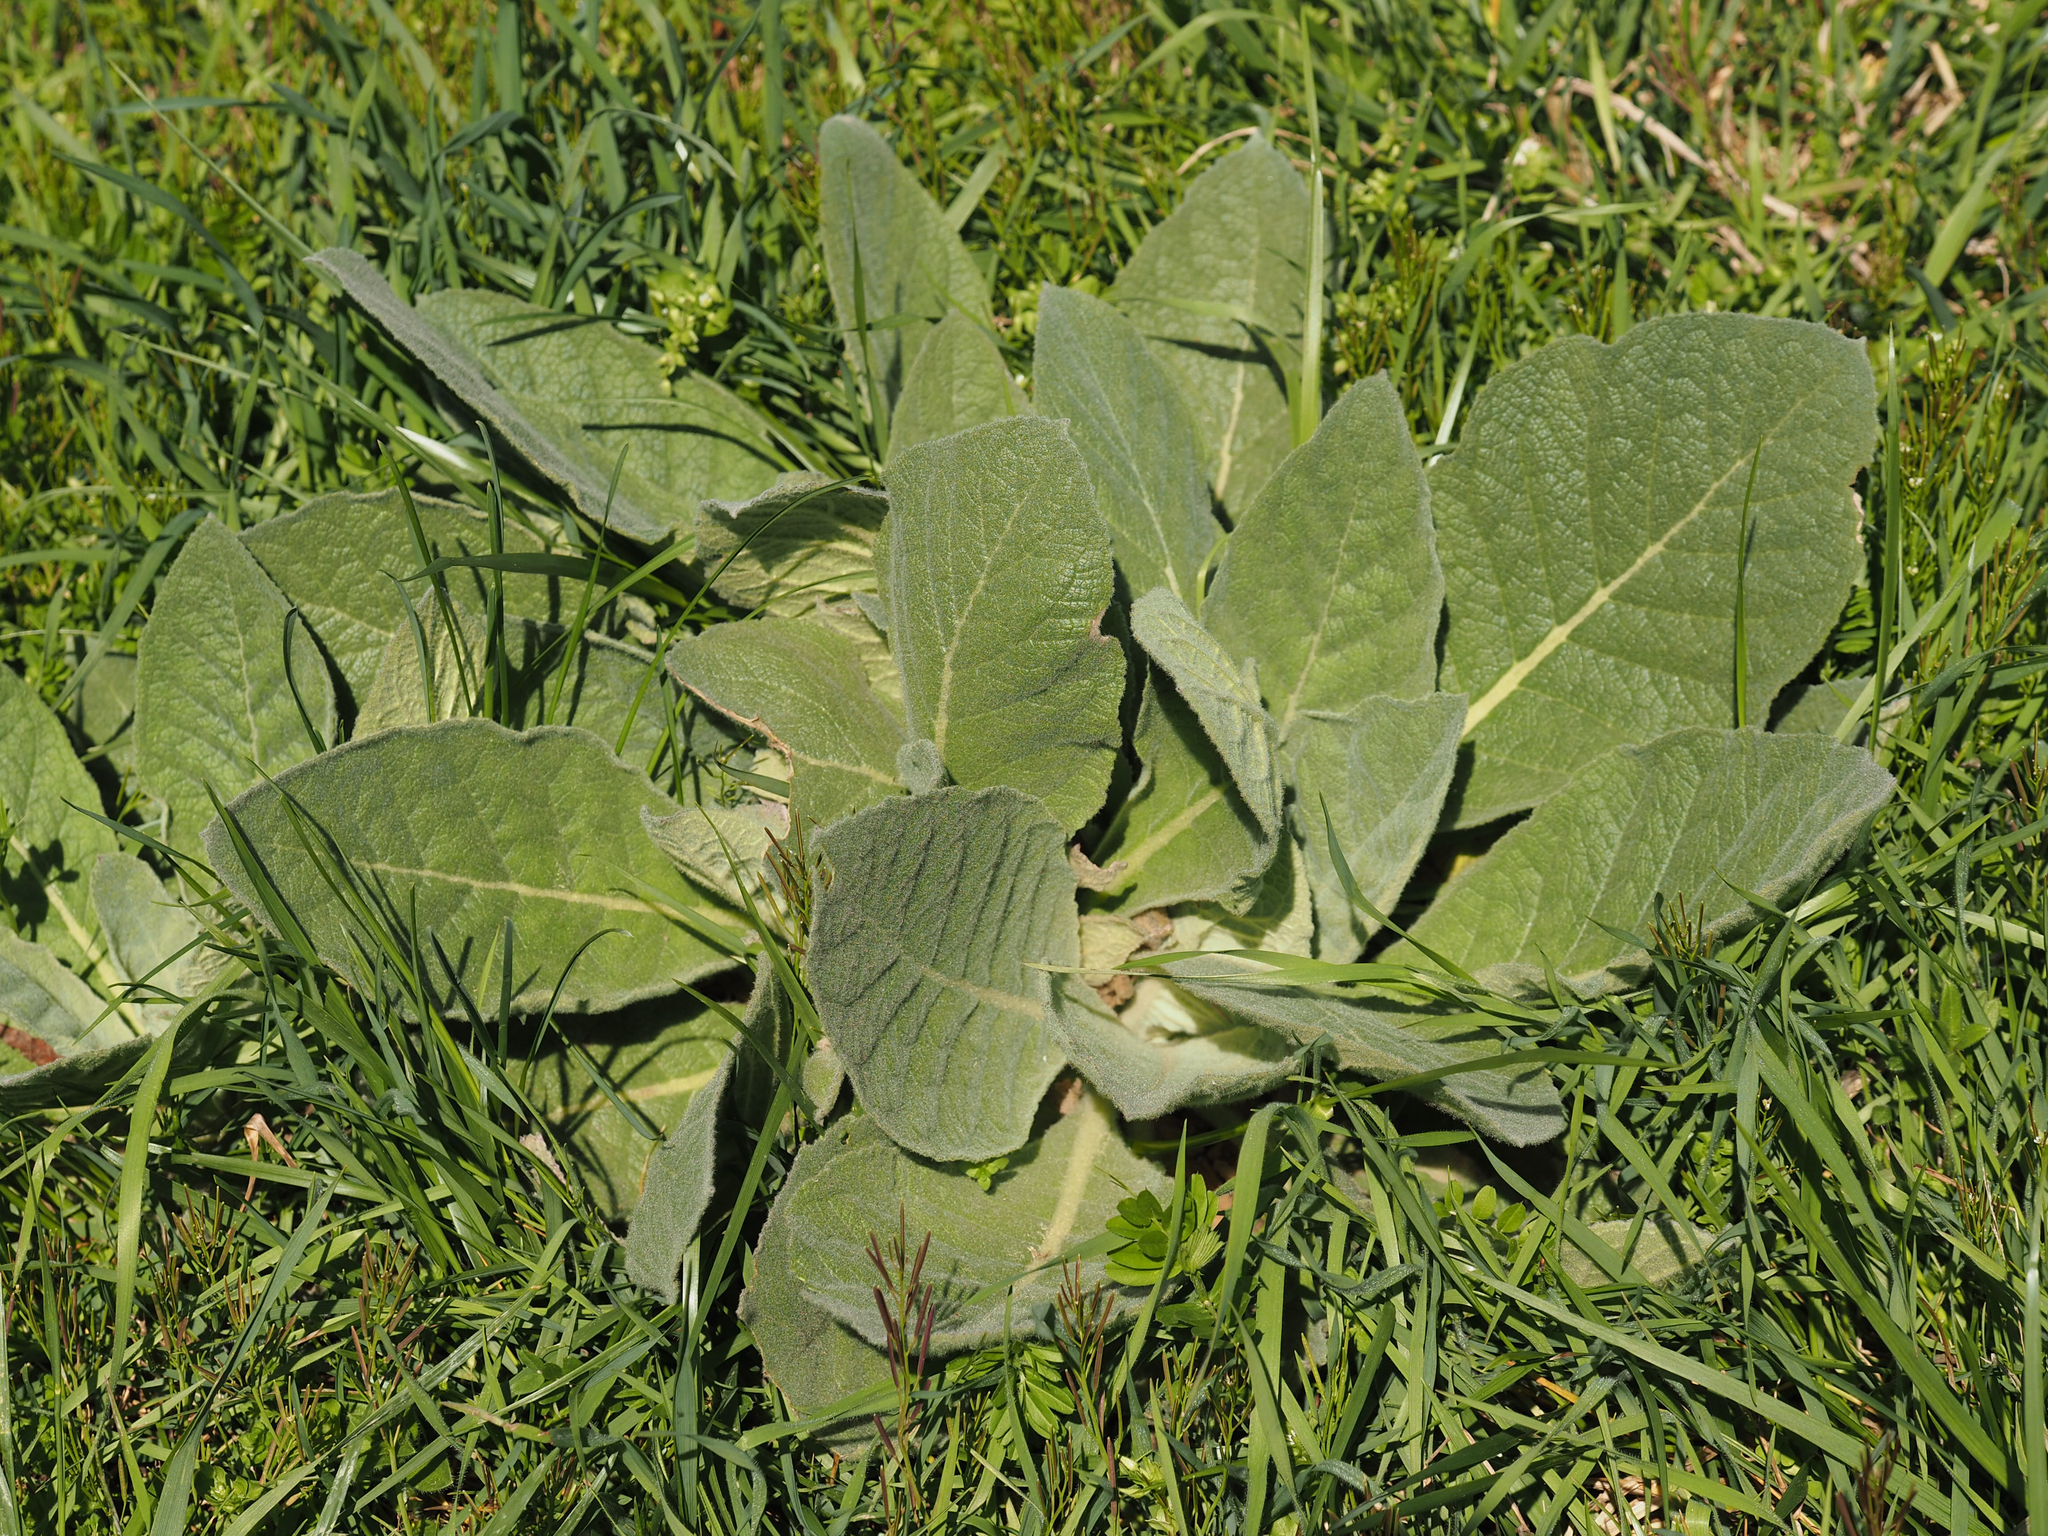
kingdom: Plantae
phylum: Tracheophyta
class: Magnoliopsida
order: Lamiales
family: Scrophulariaceae
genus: Verbascum
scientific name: Verbascum thapsus
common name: Common mullein
